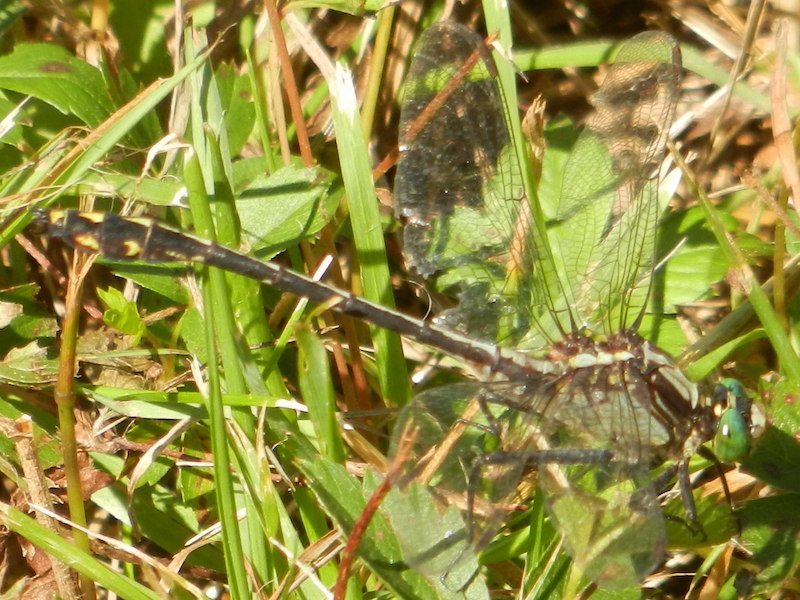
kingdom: Animalia
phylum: Arthropoda
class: Insecta
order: Odonata
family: Gomphidae
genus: Dromogomphus
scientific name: Dromogomphus spinosus
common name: Black-shouldered spinyleg
